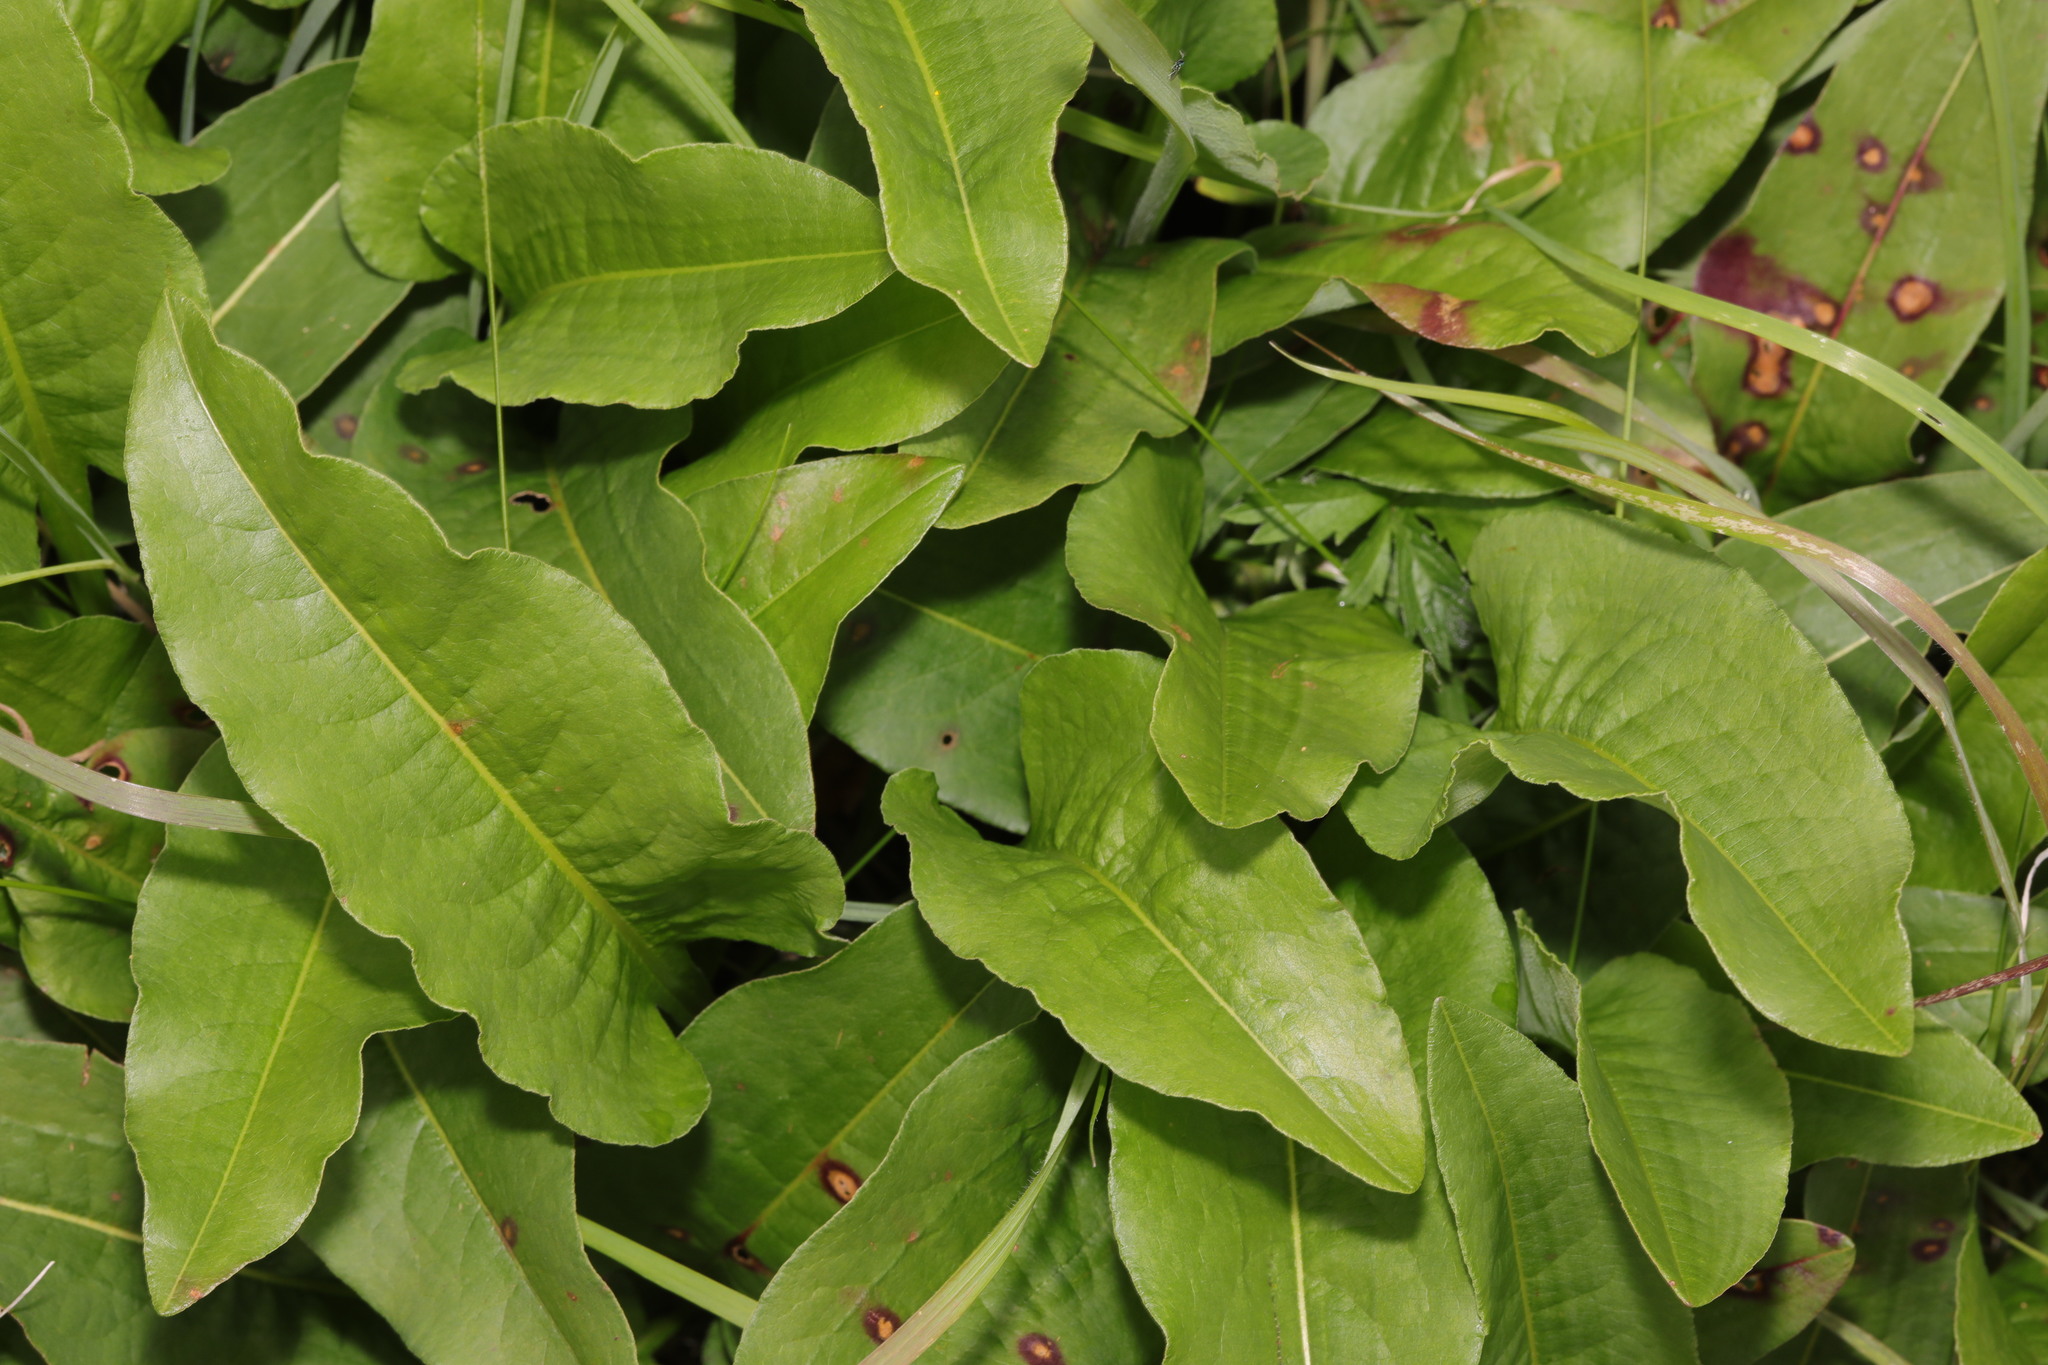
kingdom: Plantae
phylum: Tracheophyta
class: Magnoliopsida
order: Caryophyllales
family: Polygonaceae
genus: Bistorta
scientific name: Bistorta officinalis
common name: Common bistort
